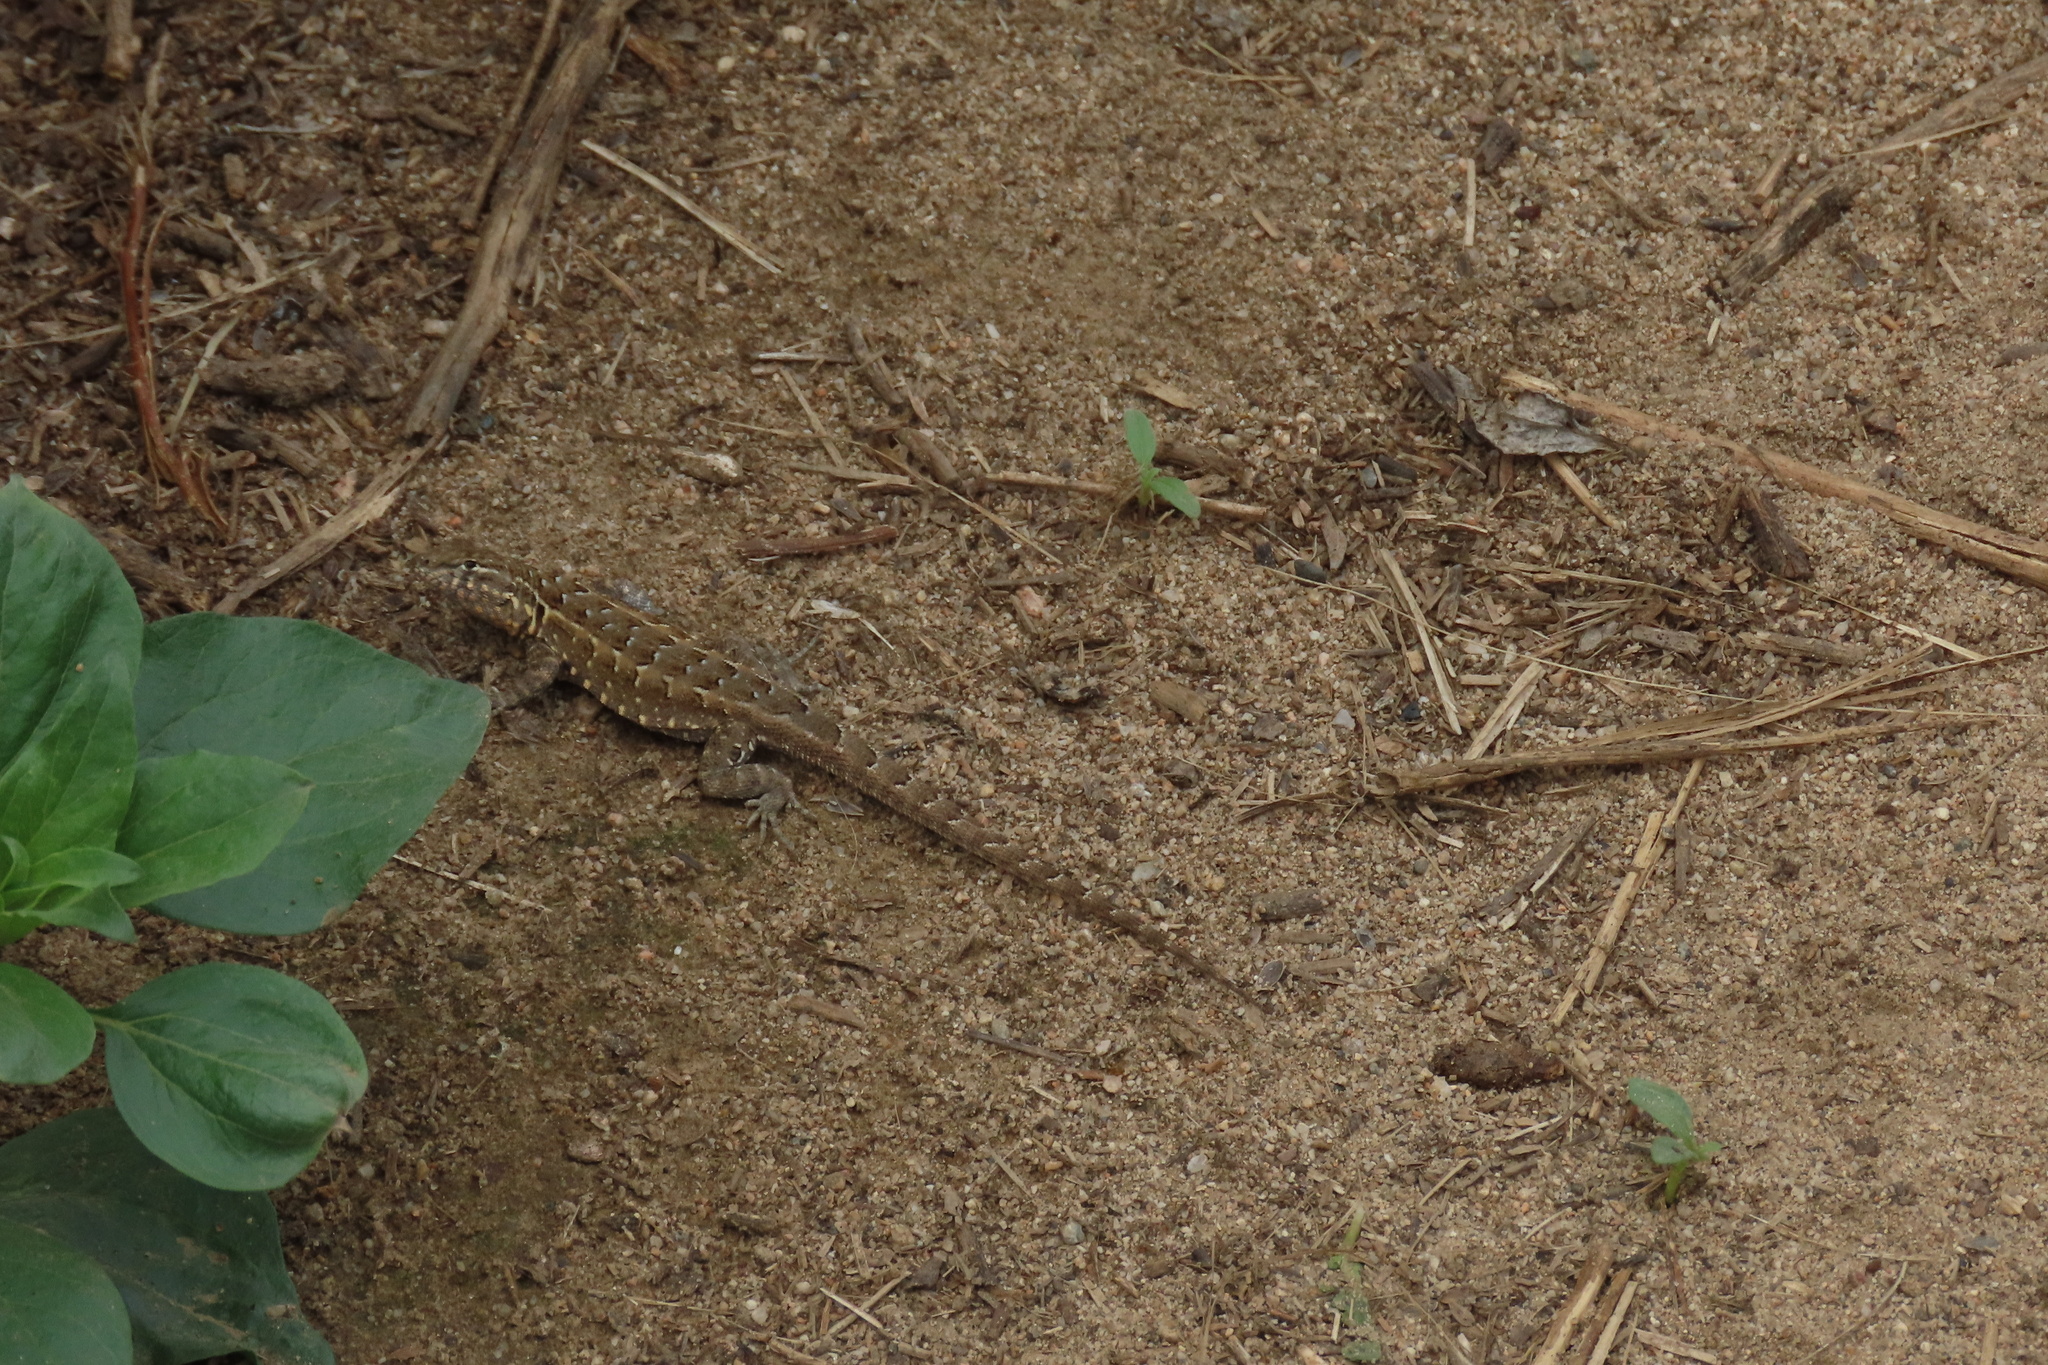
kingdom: Animalia
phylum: Chordata
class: Squamata
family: Phrynosomatidae
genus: Uta
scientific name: Uta stansburiana
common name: Side-blotched lizard
